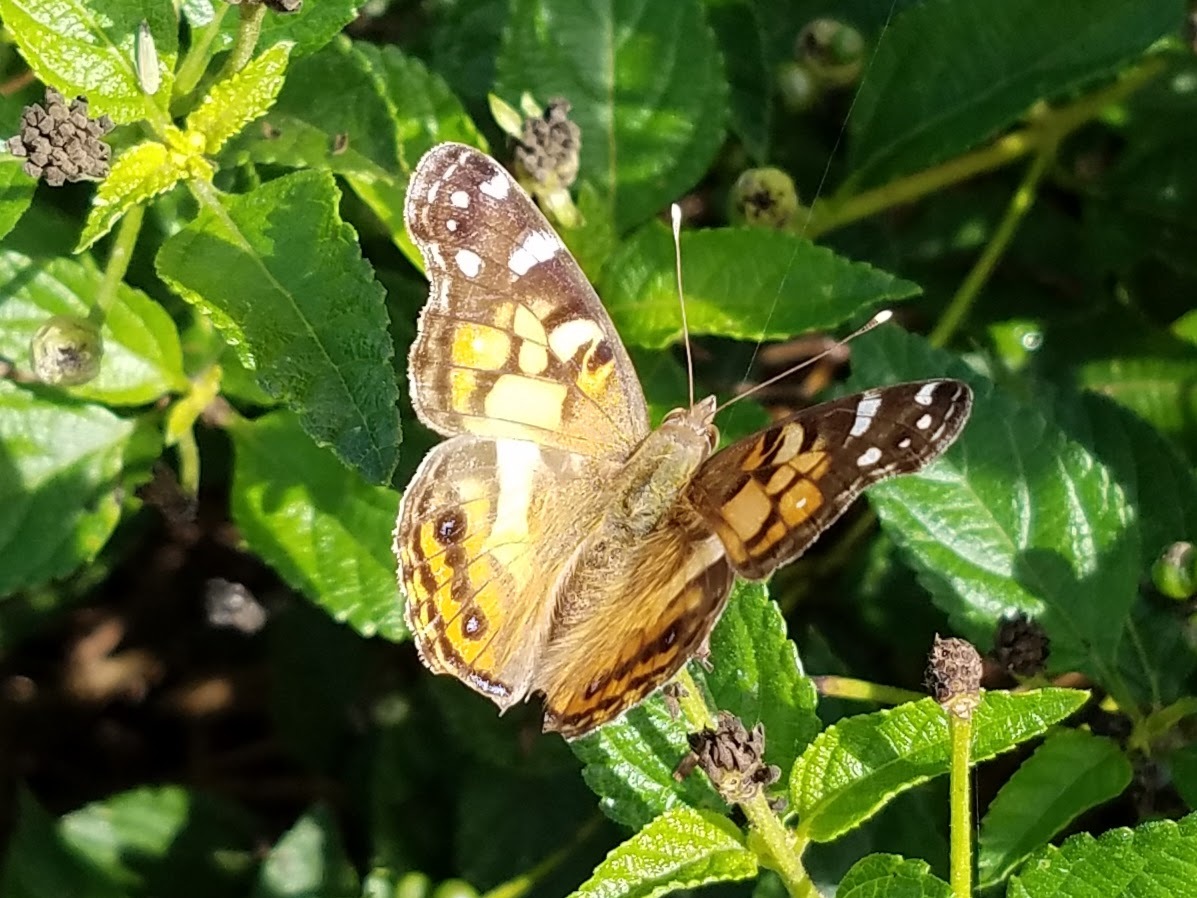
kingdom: Animalia
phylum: Arthropoda
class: Insecta
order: Lepidoptera
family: Nymphalidae
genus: Vanessa
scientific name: Vanessa virginiensis
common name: American lady
